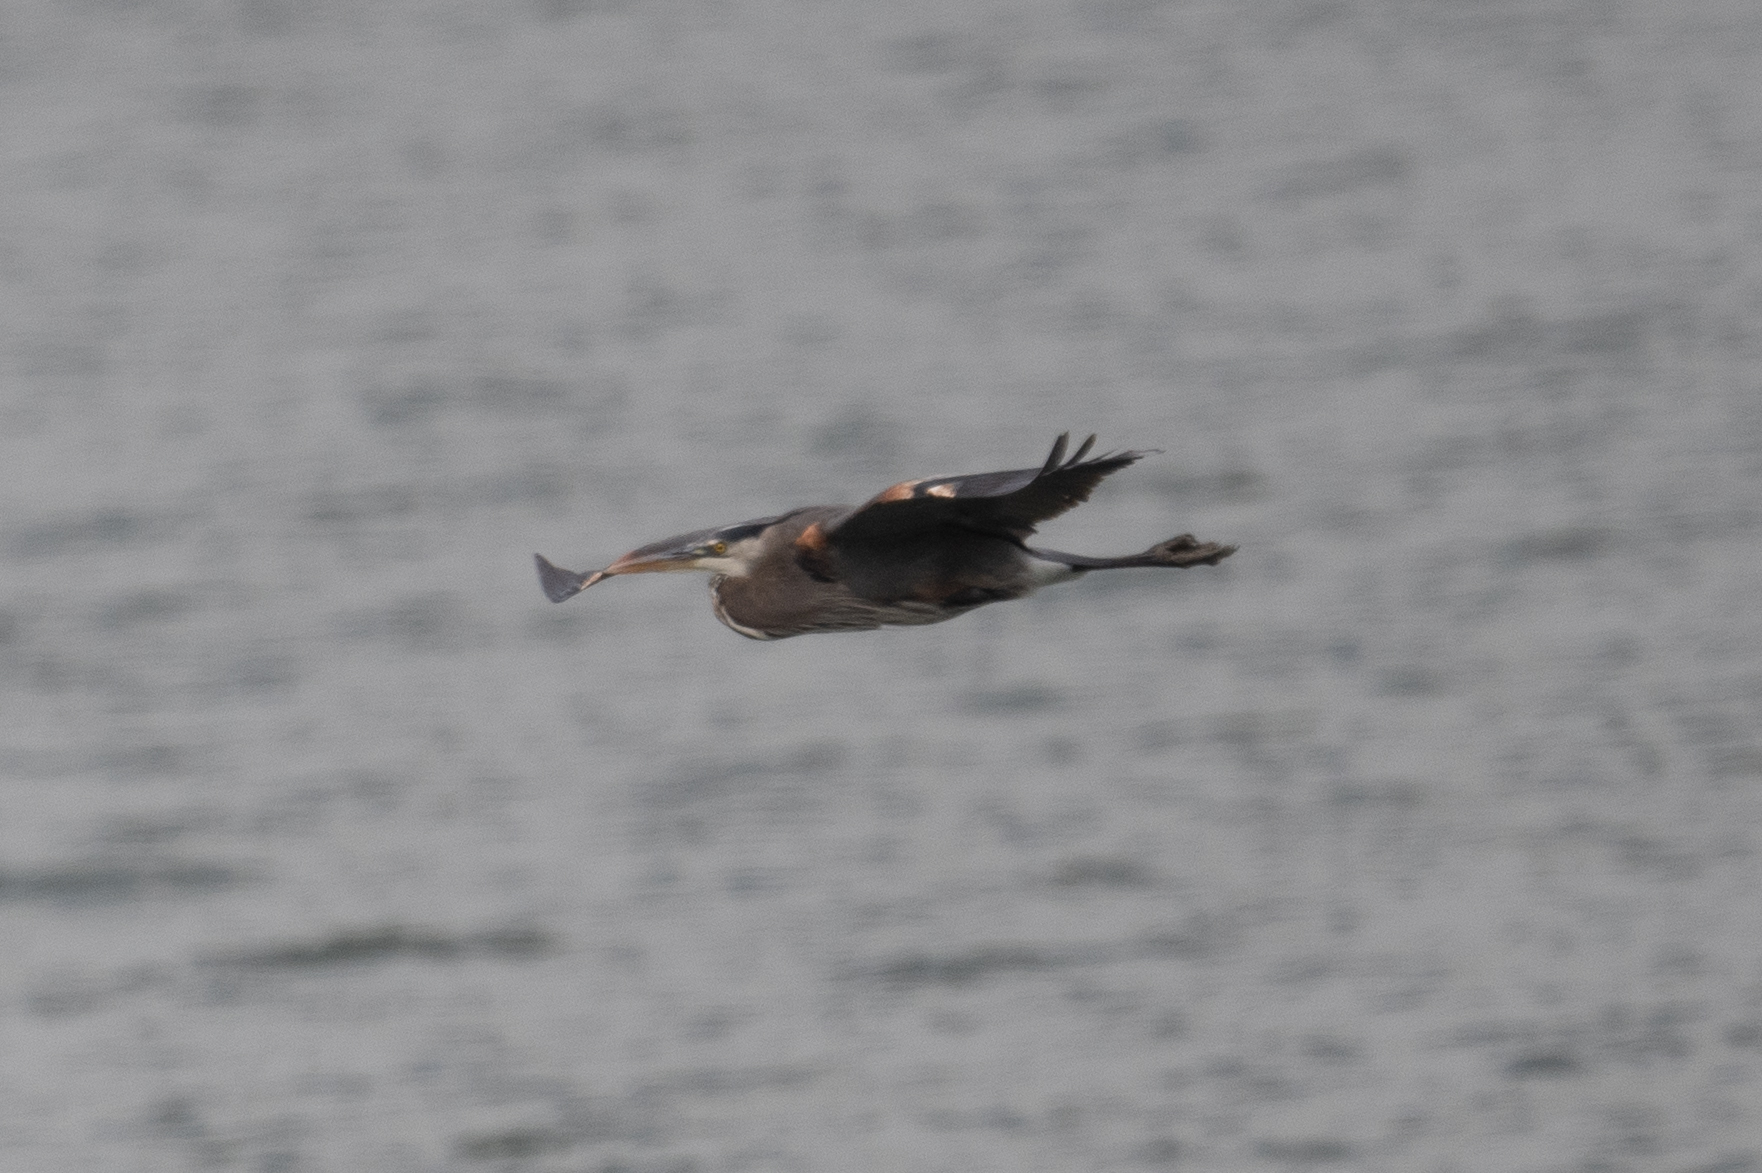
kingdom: Animalia
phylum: Chordata
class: Aves
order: Pelecaniformes
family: Ardeidae
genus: Ardea
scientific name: Ardea herodias
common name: Great blue heron
